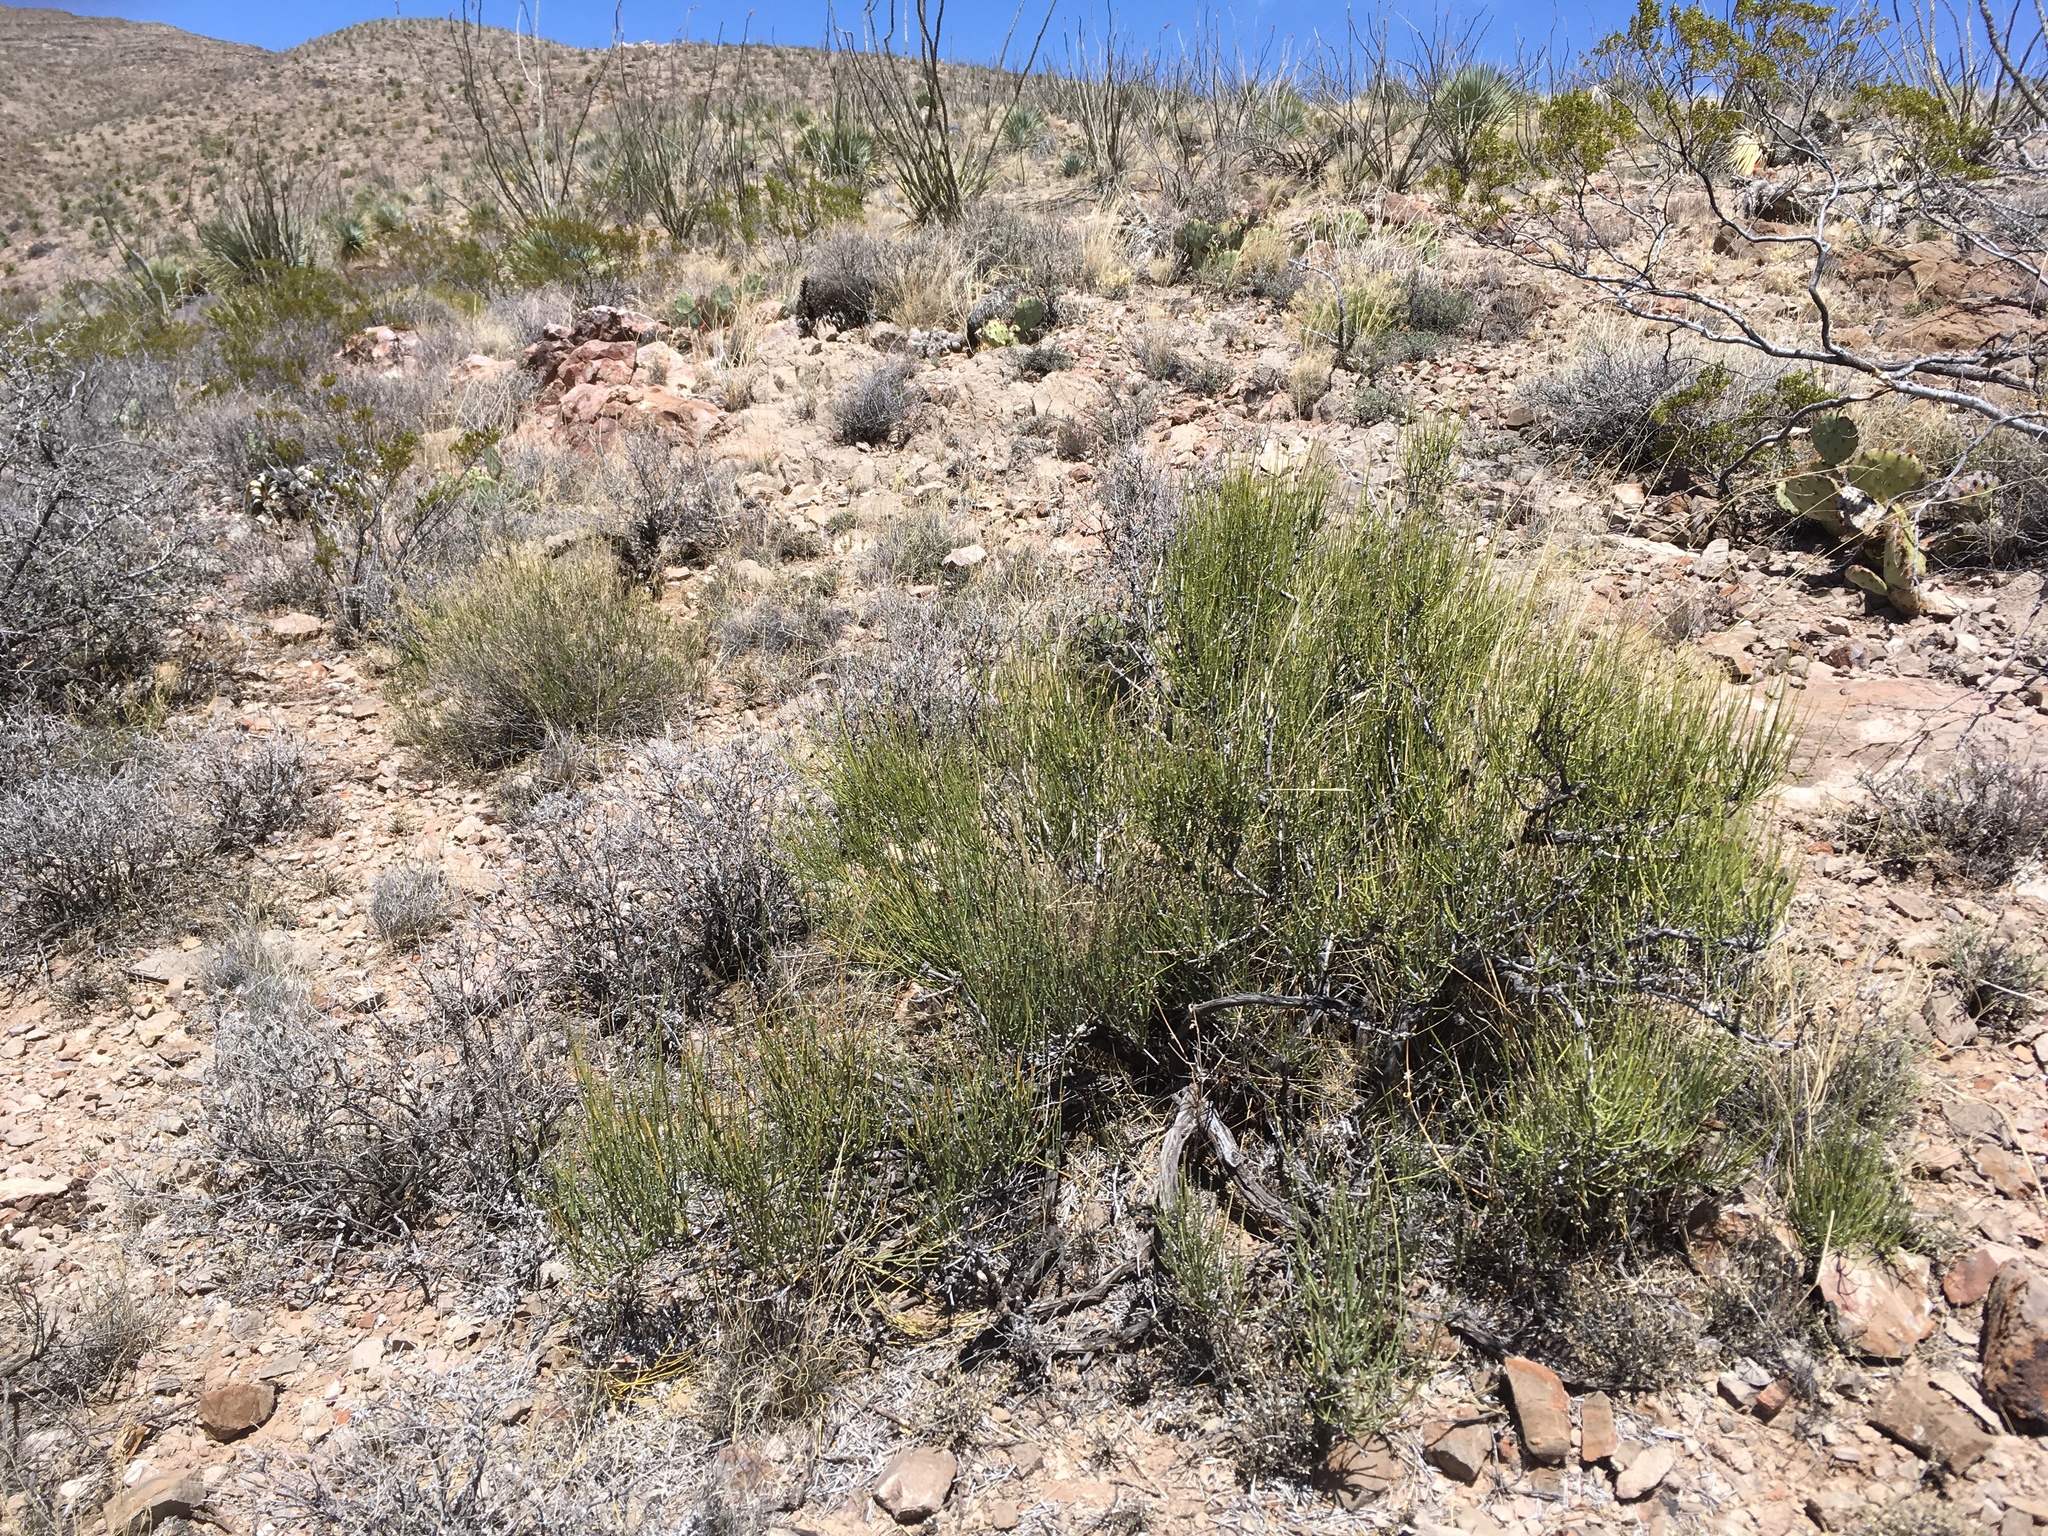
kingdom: Plantae
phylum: Tracheophyta
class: Gnetopsida
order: Ephedrales
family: Ephedraceae
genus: Ephedra
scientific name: Ephedra aspera
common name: Boundary ephedra
